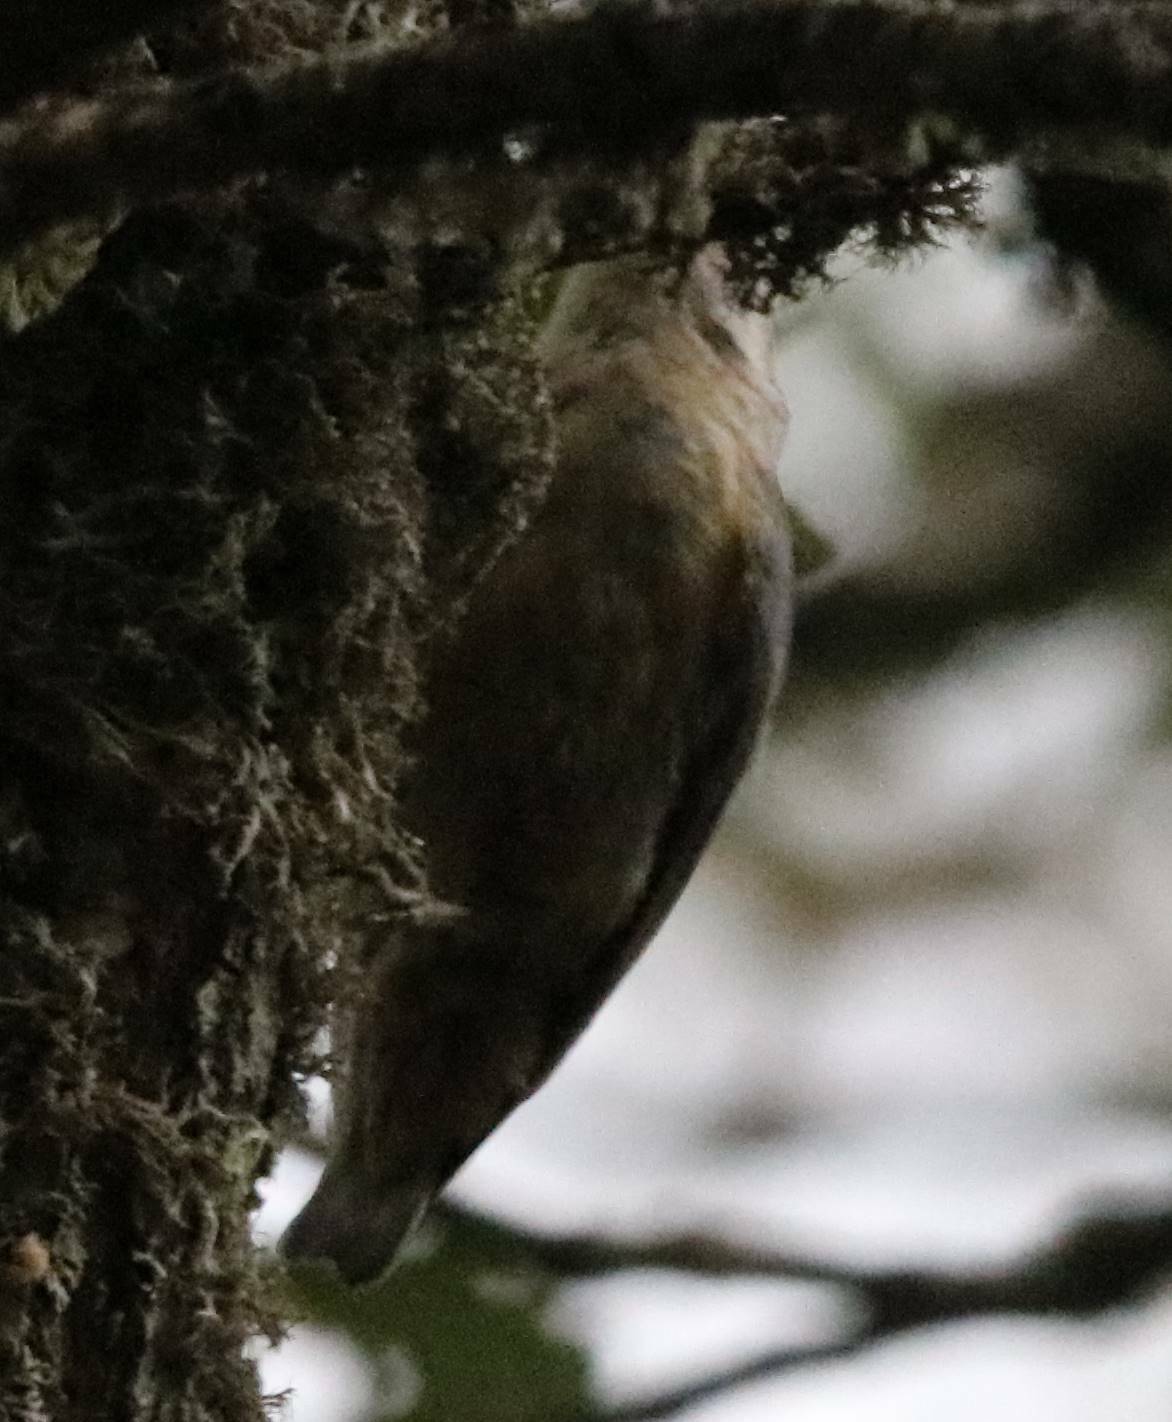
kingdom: Animalia
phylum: Chordata
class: Aves
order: Passeriformes
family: Sittidae
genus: Sitta
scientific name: Sitta ledanti
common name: Algerian nuthatch
